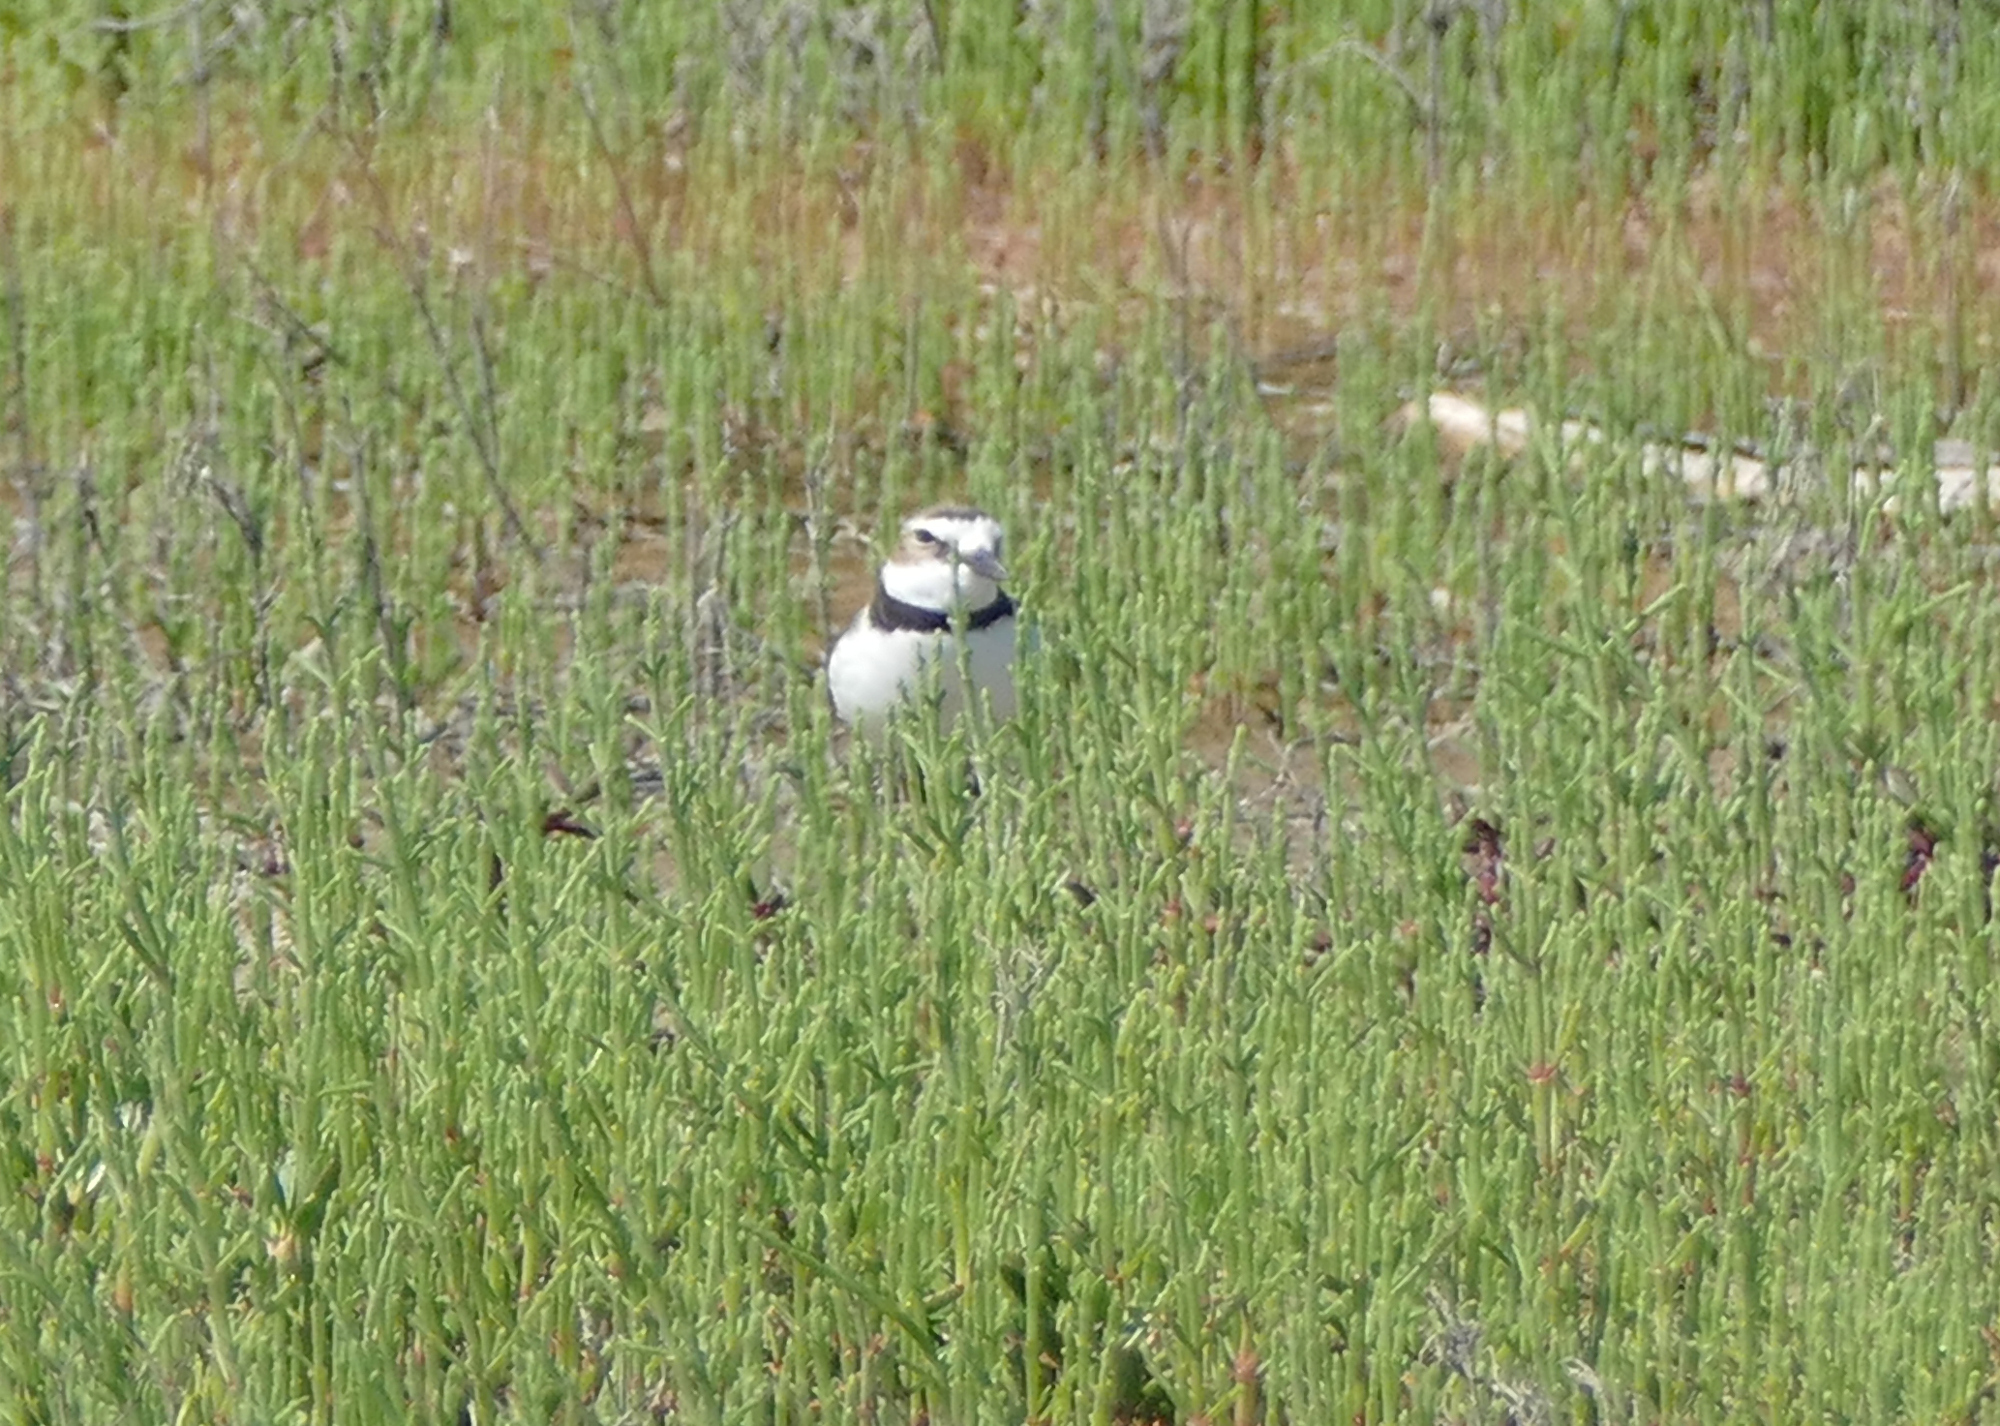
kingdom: Animalia
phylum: Chordata
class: Aves
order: Charadriiformes
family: Charadriidae
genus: Anarhynchus
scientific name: Anarhynchus
